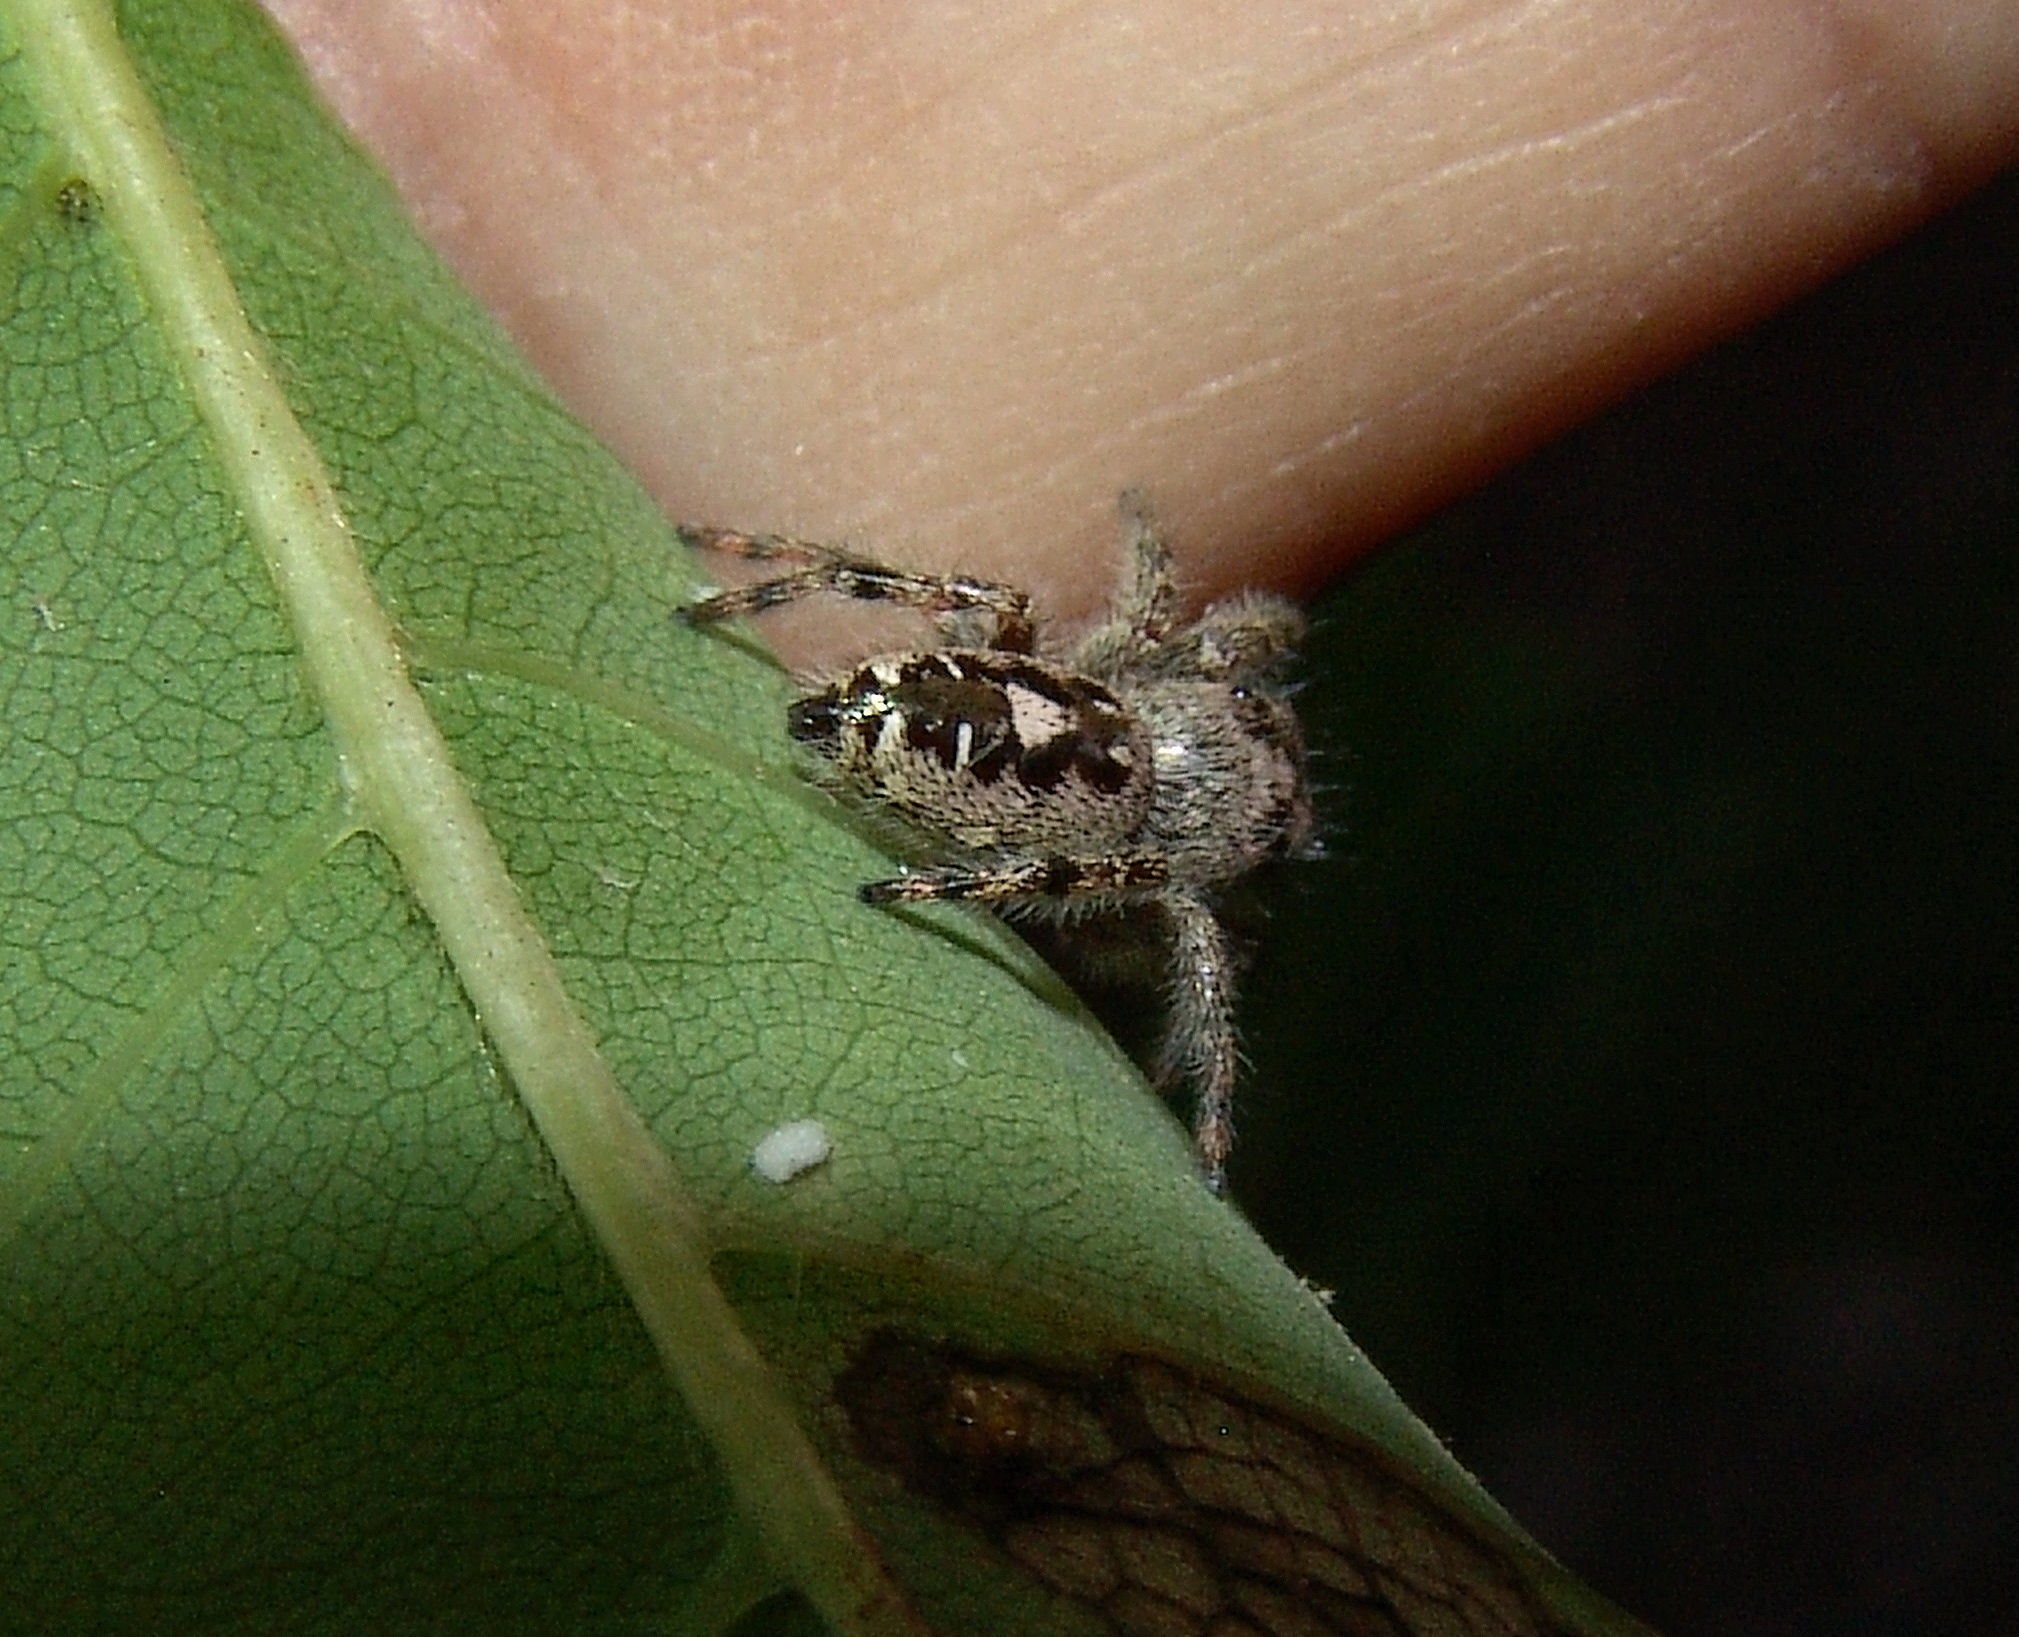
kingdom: Animalia
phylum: Arthropoda
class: Arachnida
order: Araneae
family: Salticidae
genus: Phidippus
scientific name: Phidippus putnami
